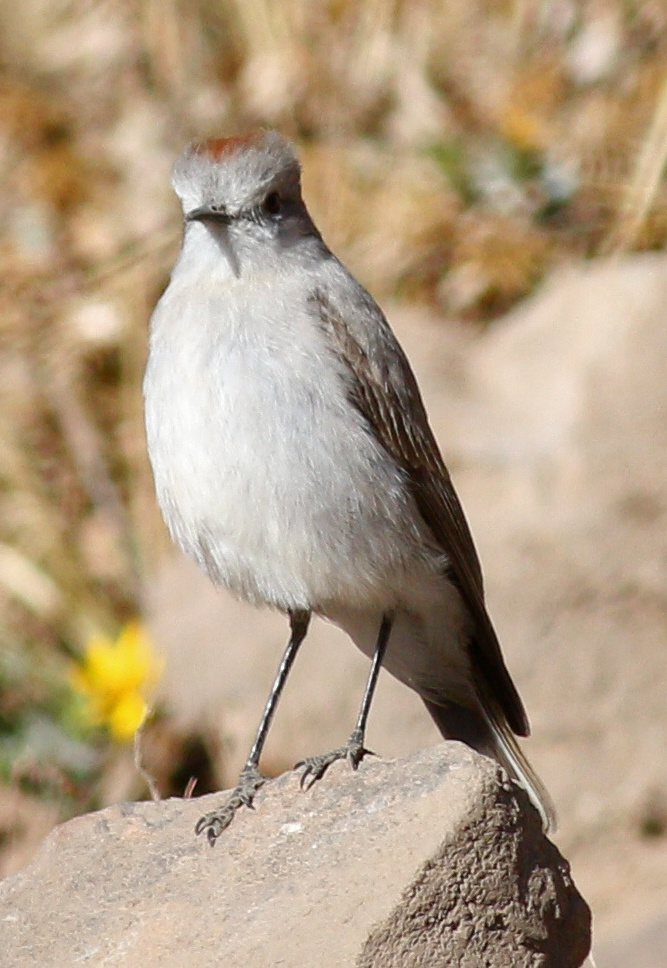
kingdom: Animalia
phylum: Chordata
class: Aves
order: Passeriformes
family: Tyrannidae
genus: Muscisaxicola
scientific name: Muscisaxicola rufivertex
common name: Rufous-naped ground tyrant
